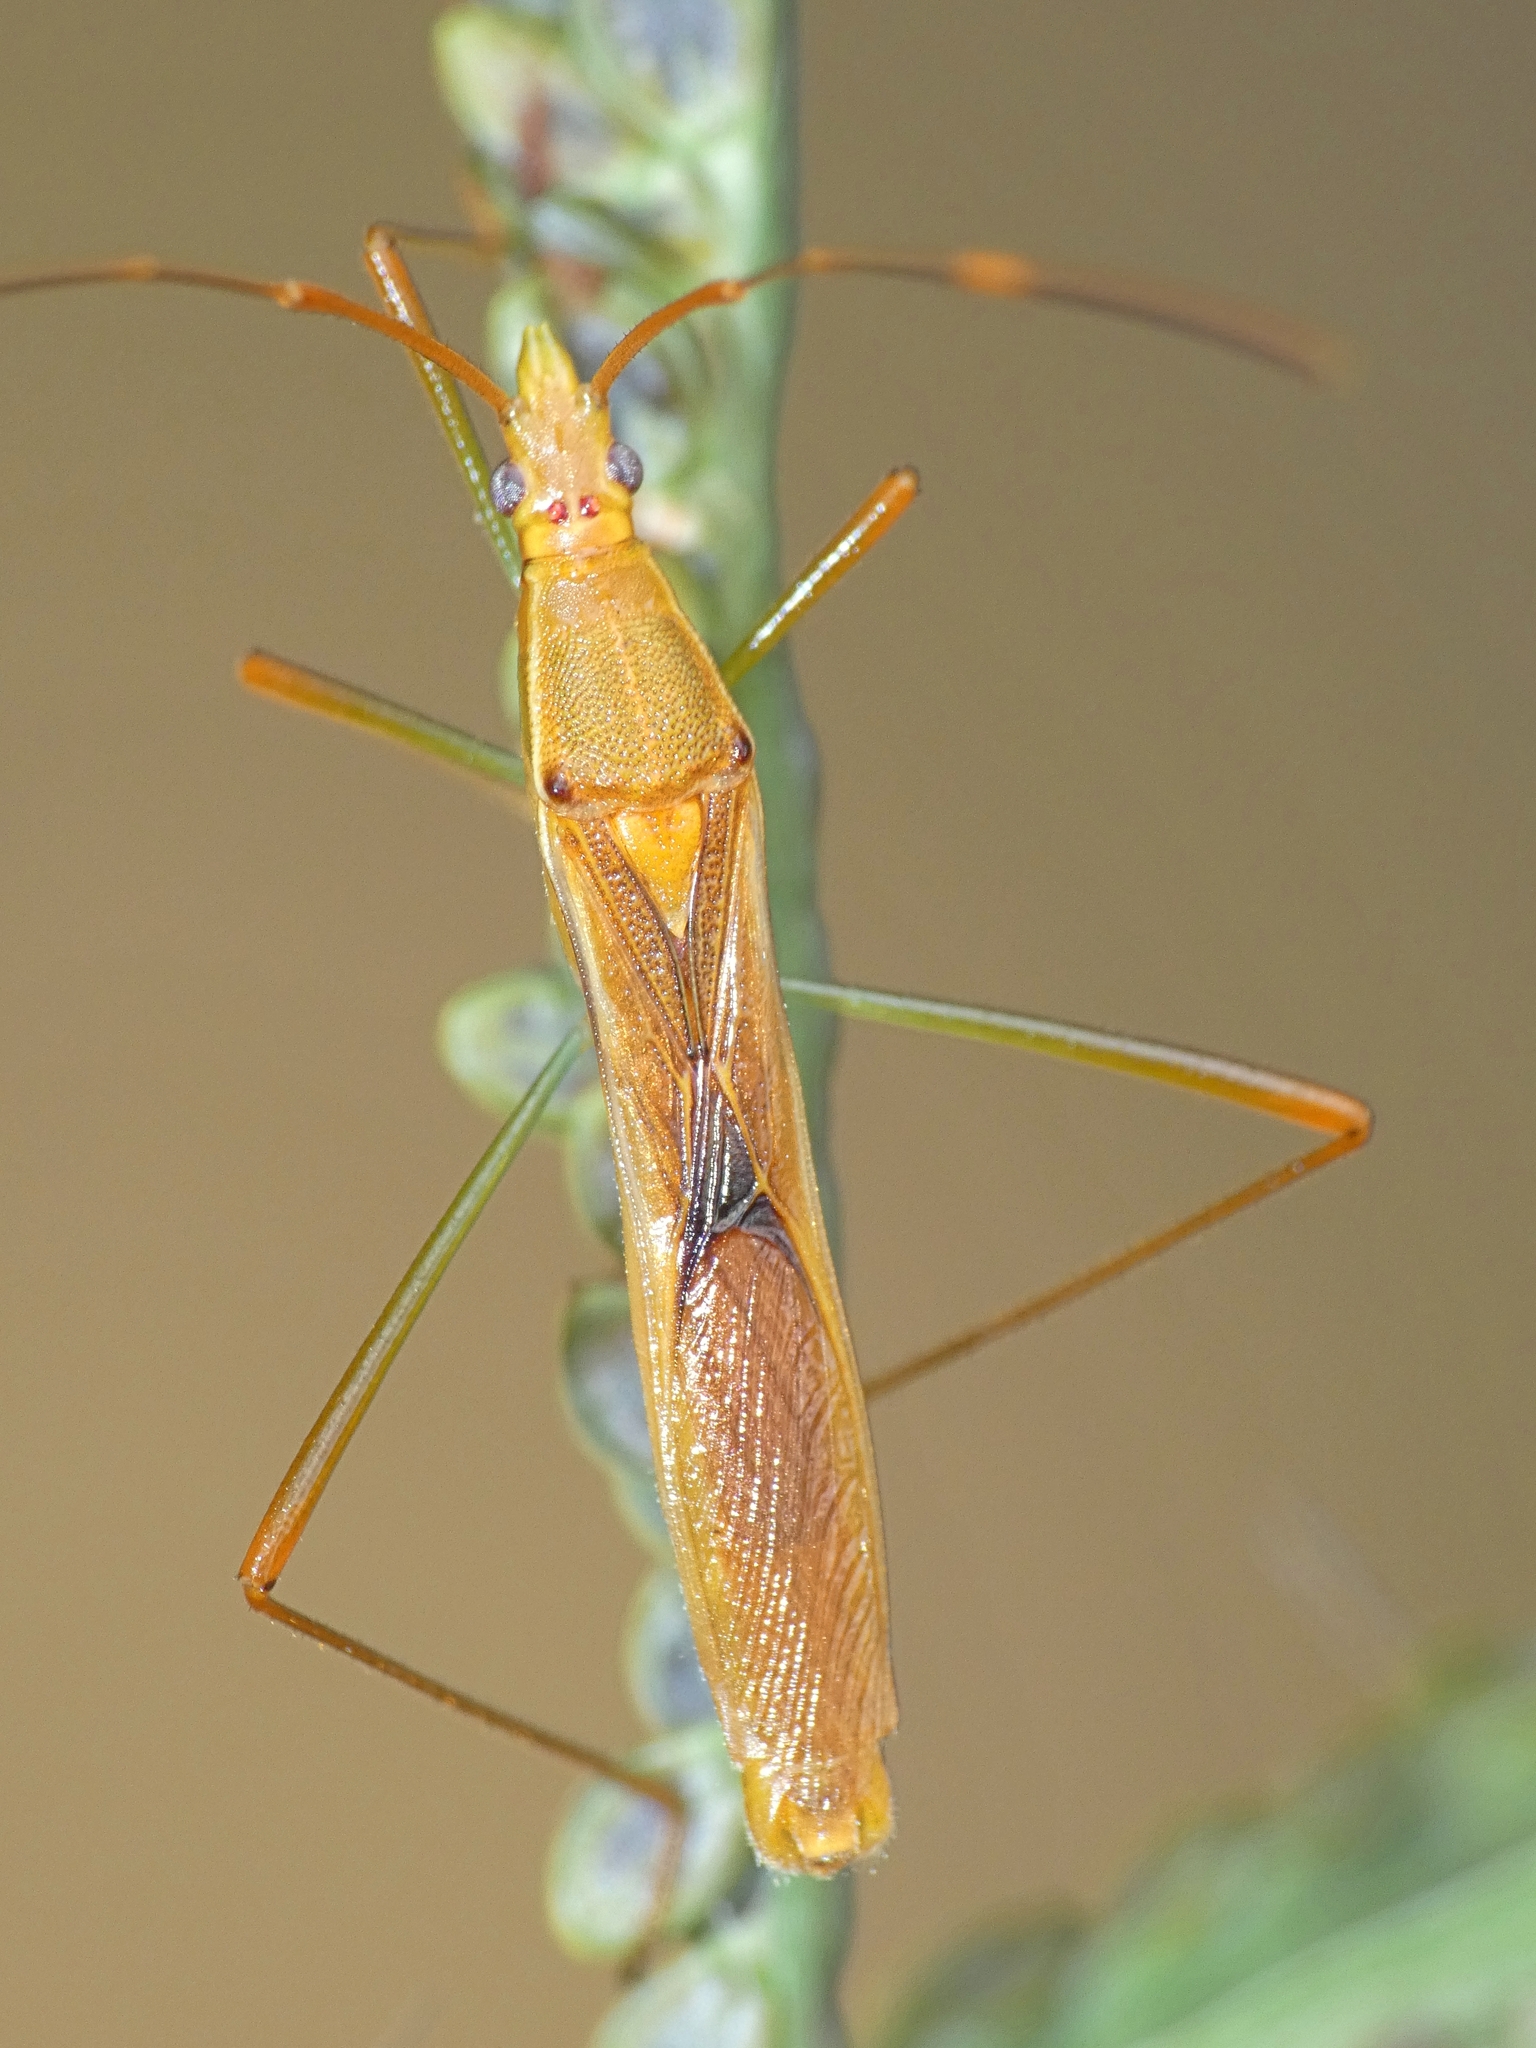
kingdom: Animalia
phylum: Arthropoda
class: Insecta
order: Hemiptera
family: Alydidae
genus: Leptocorisa
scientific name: Leptocorisa acuta
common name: Gandhi bug
